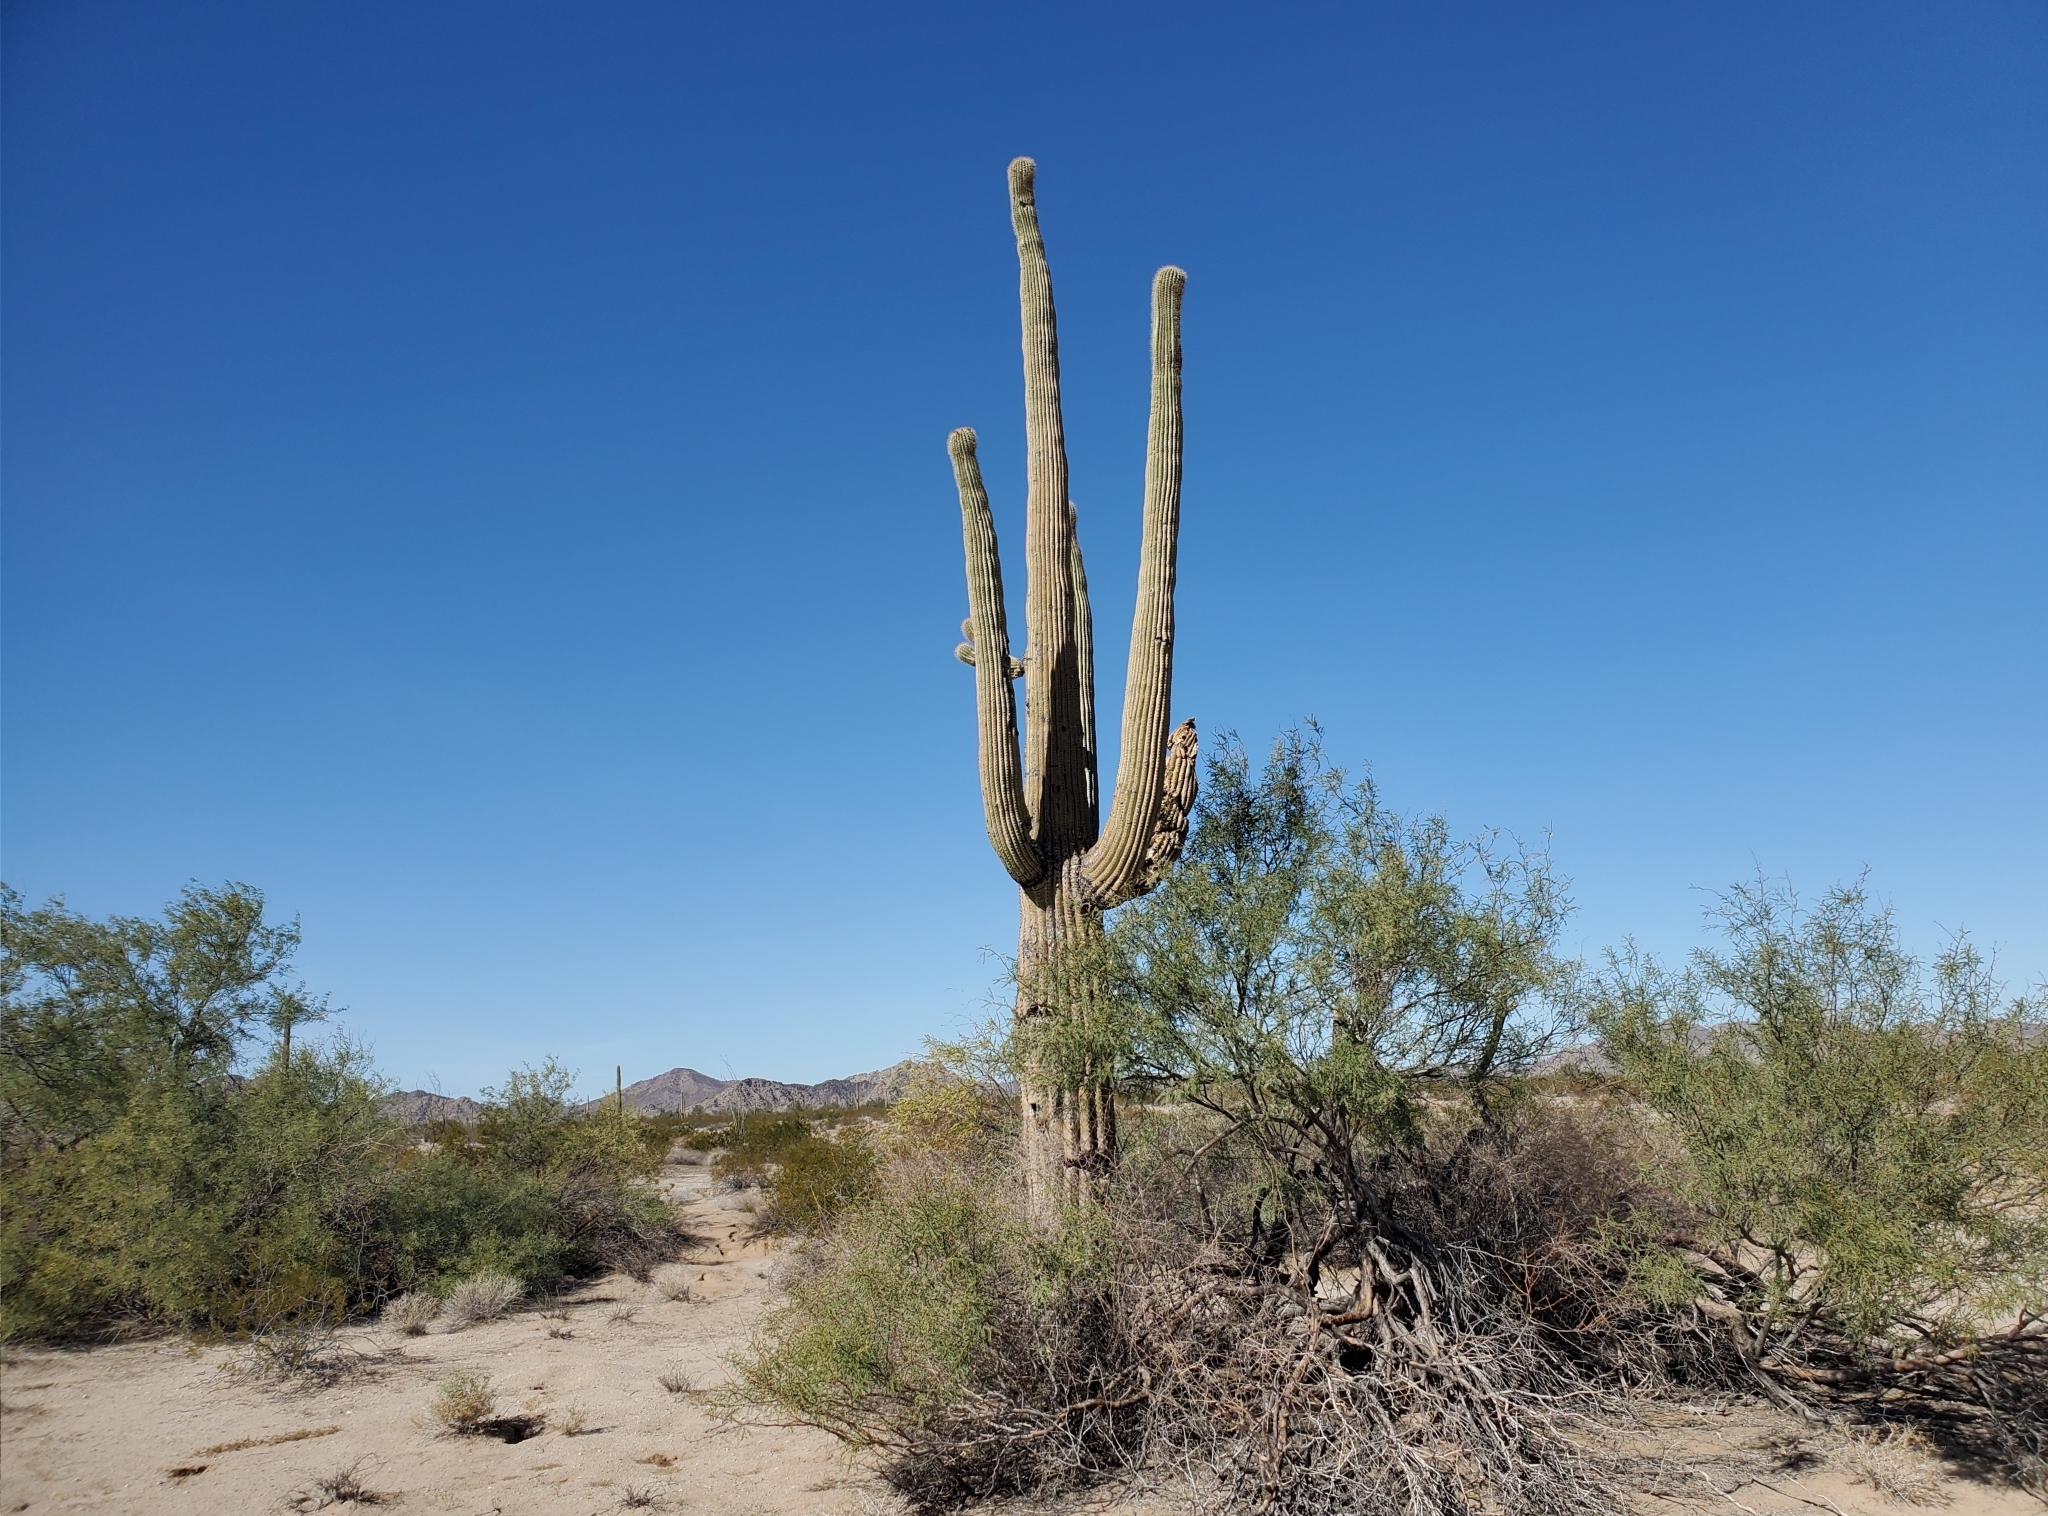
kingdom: Plantae
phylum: Tracheophyta
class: Magnoliopsida
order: Caryophyllales
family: Cactaceae
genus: Carnegiea
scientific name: Carnegiea gigantea
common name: Saguaro
